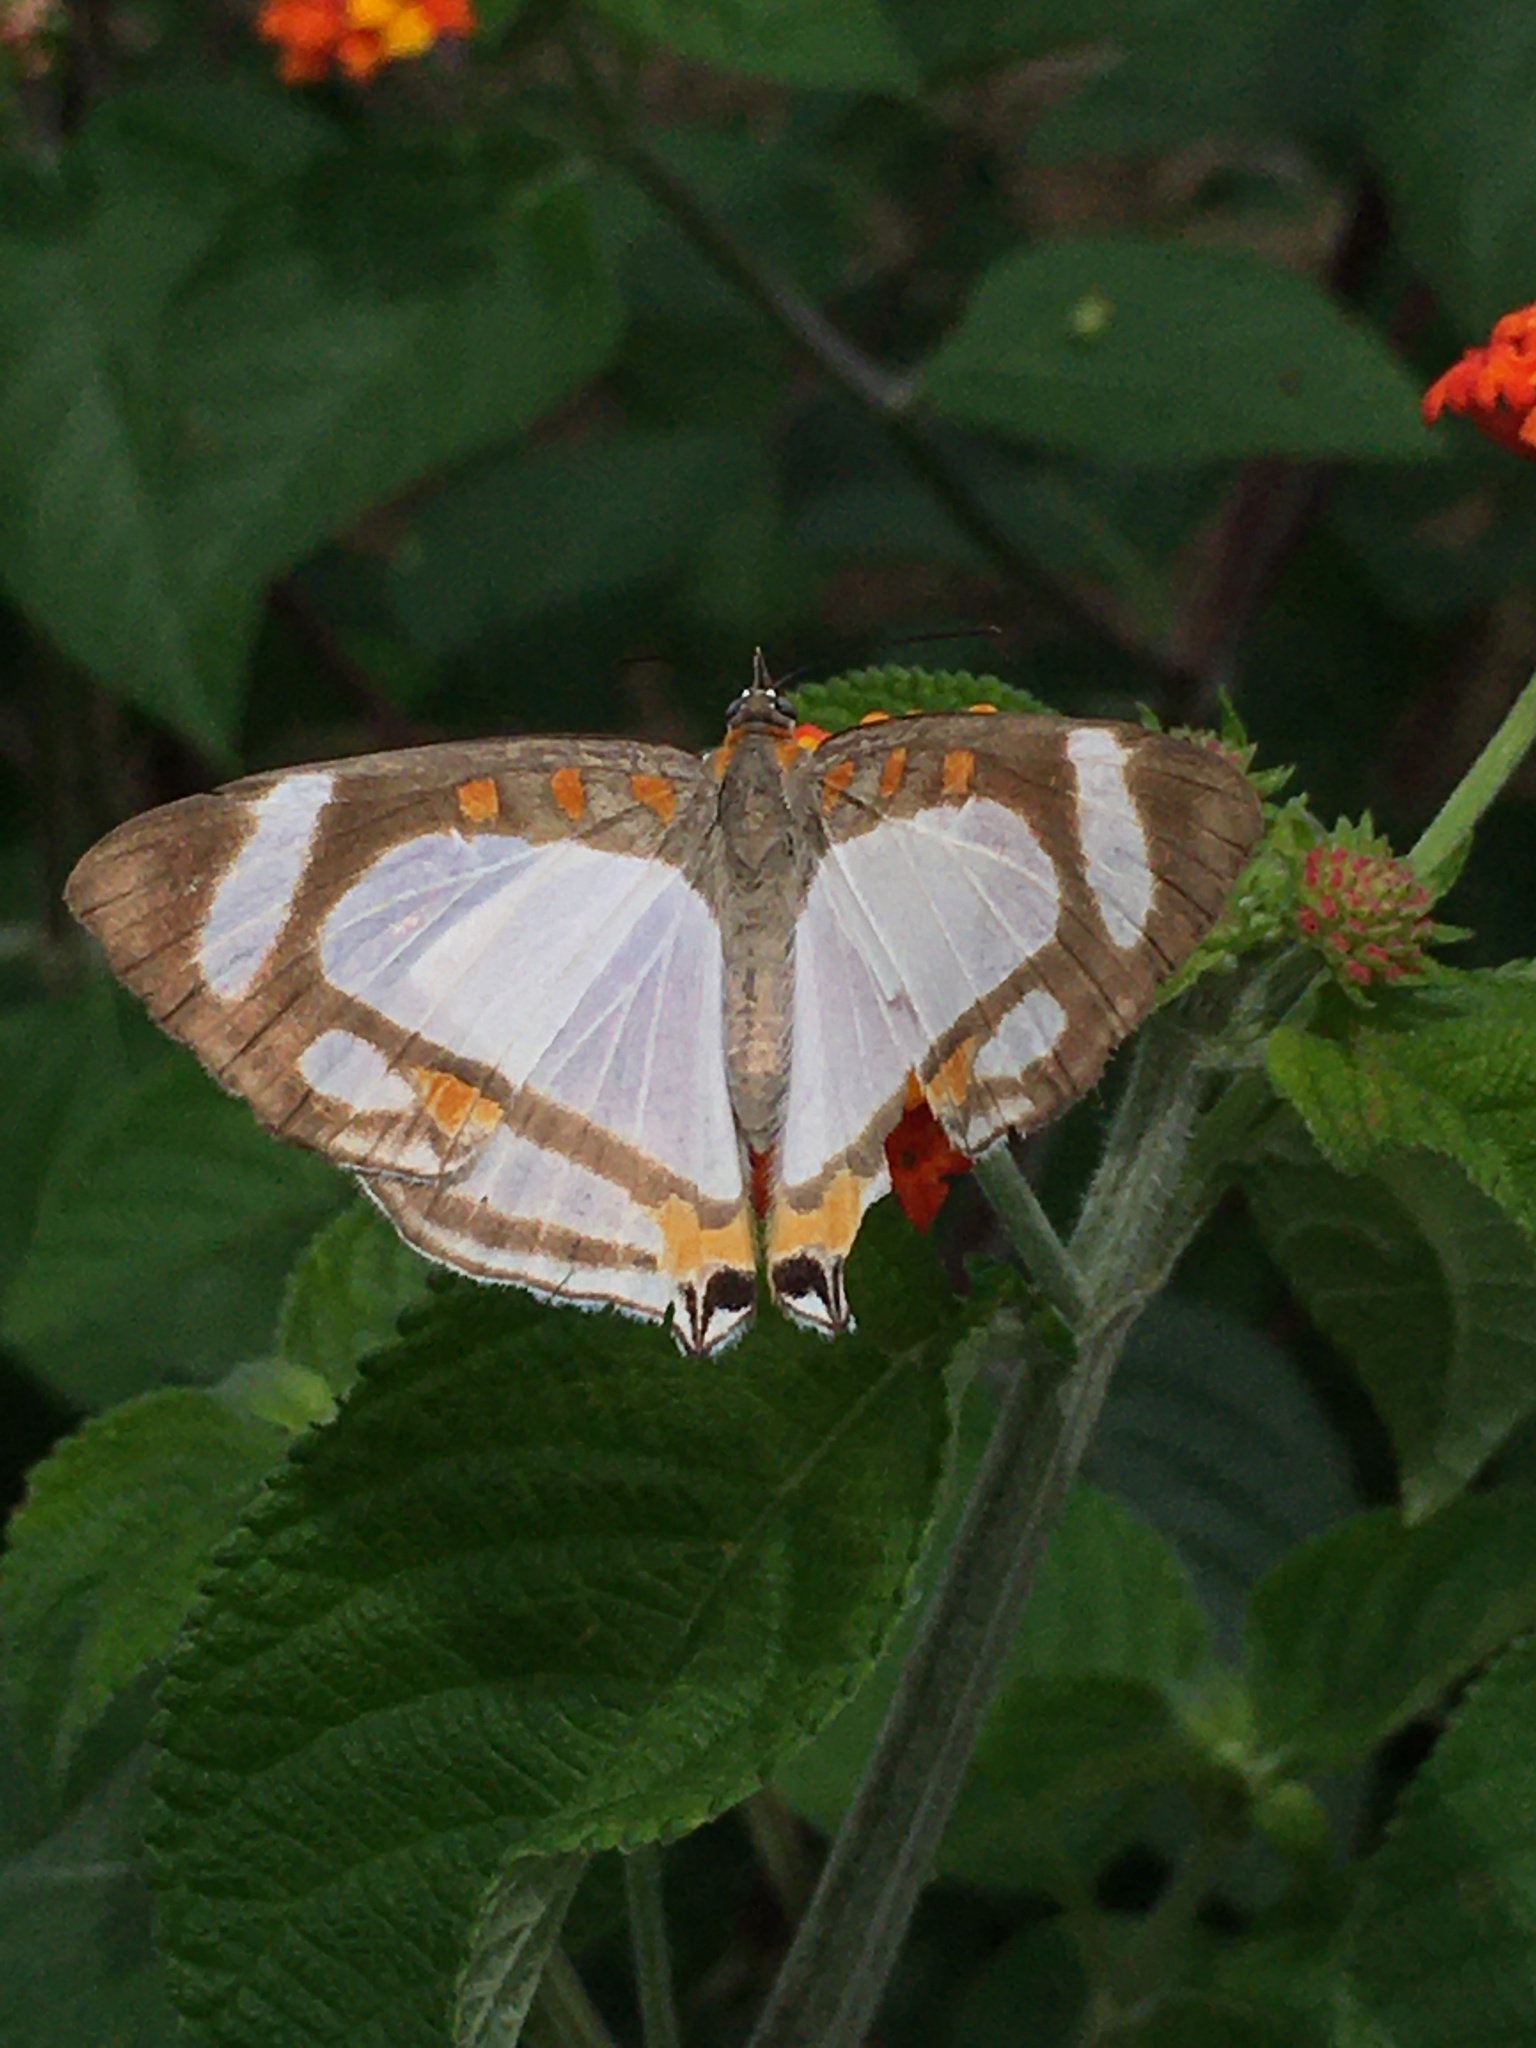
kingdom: Animalia
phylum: Arthropoda
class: Insecta
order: Lepidoptera
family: Riodinidae
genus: Thisbe
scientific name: Thisbe lycorias
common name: Banner metalmark
